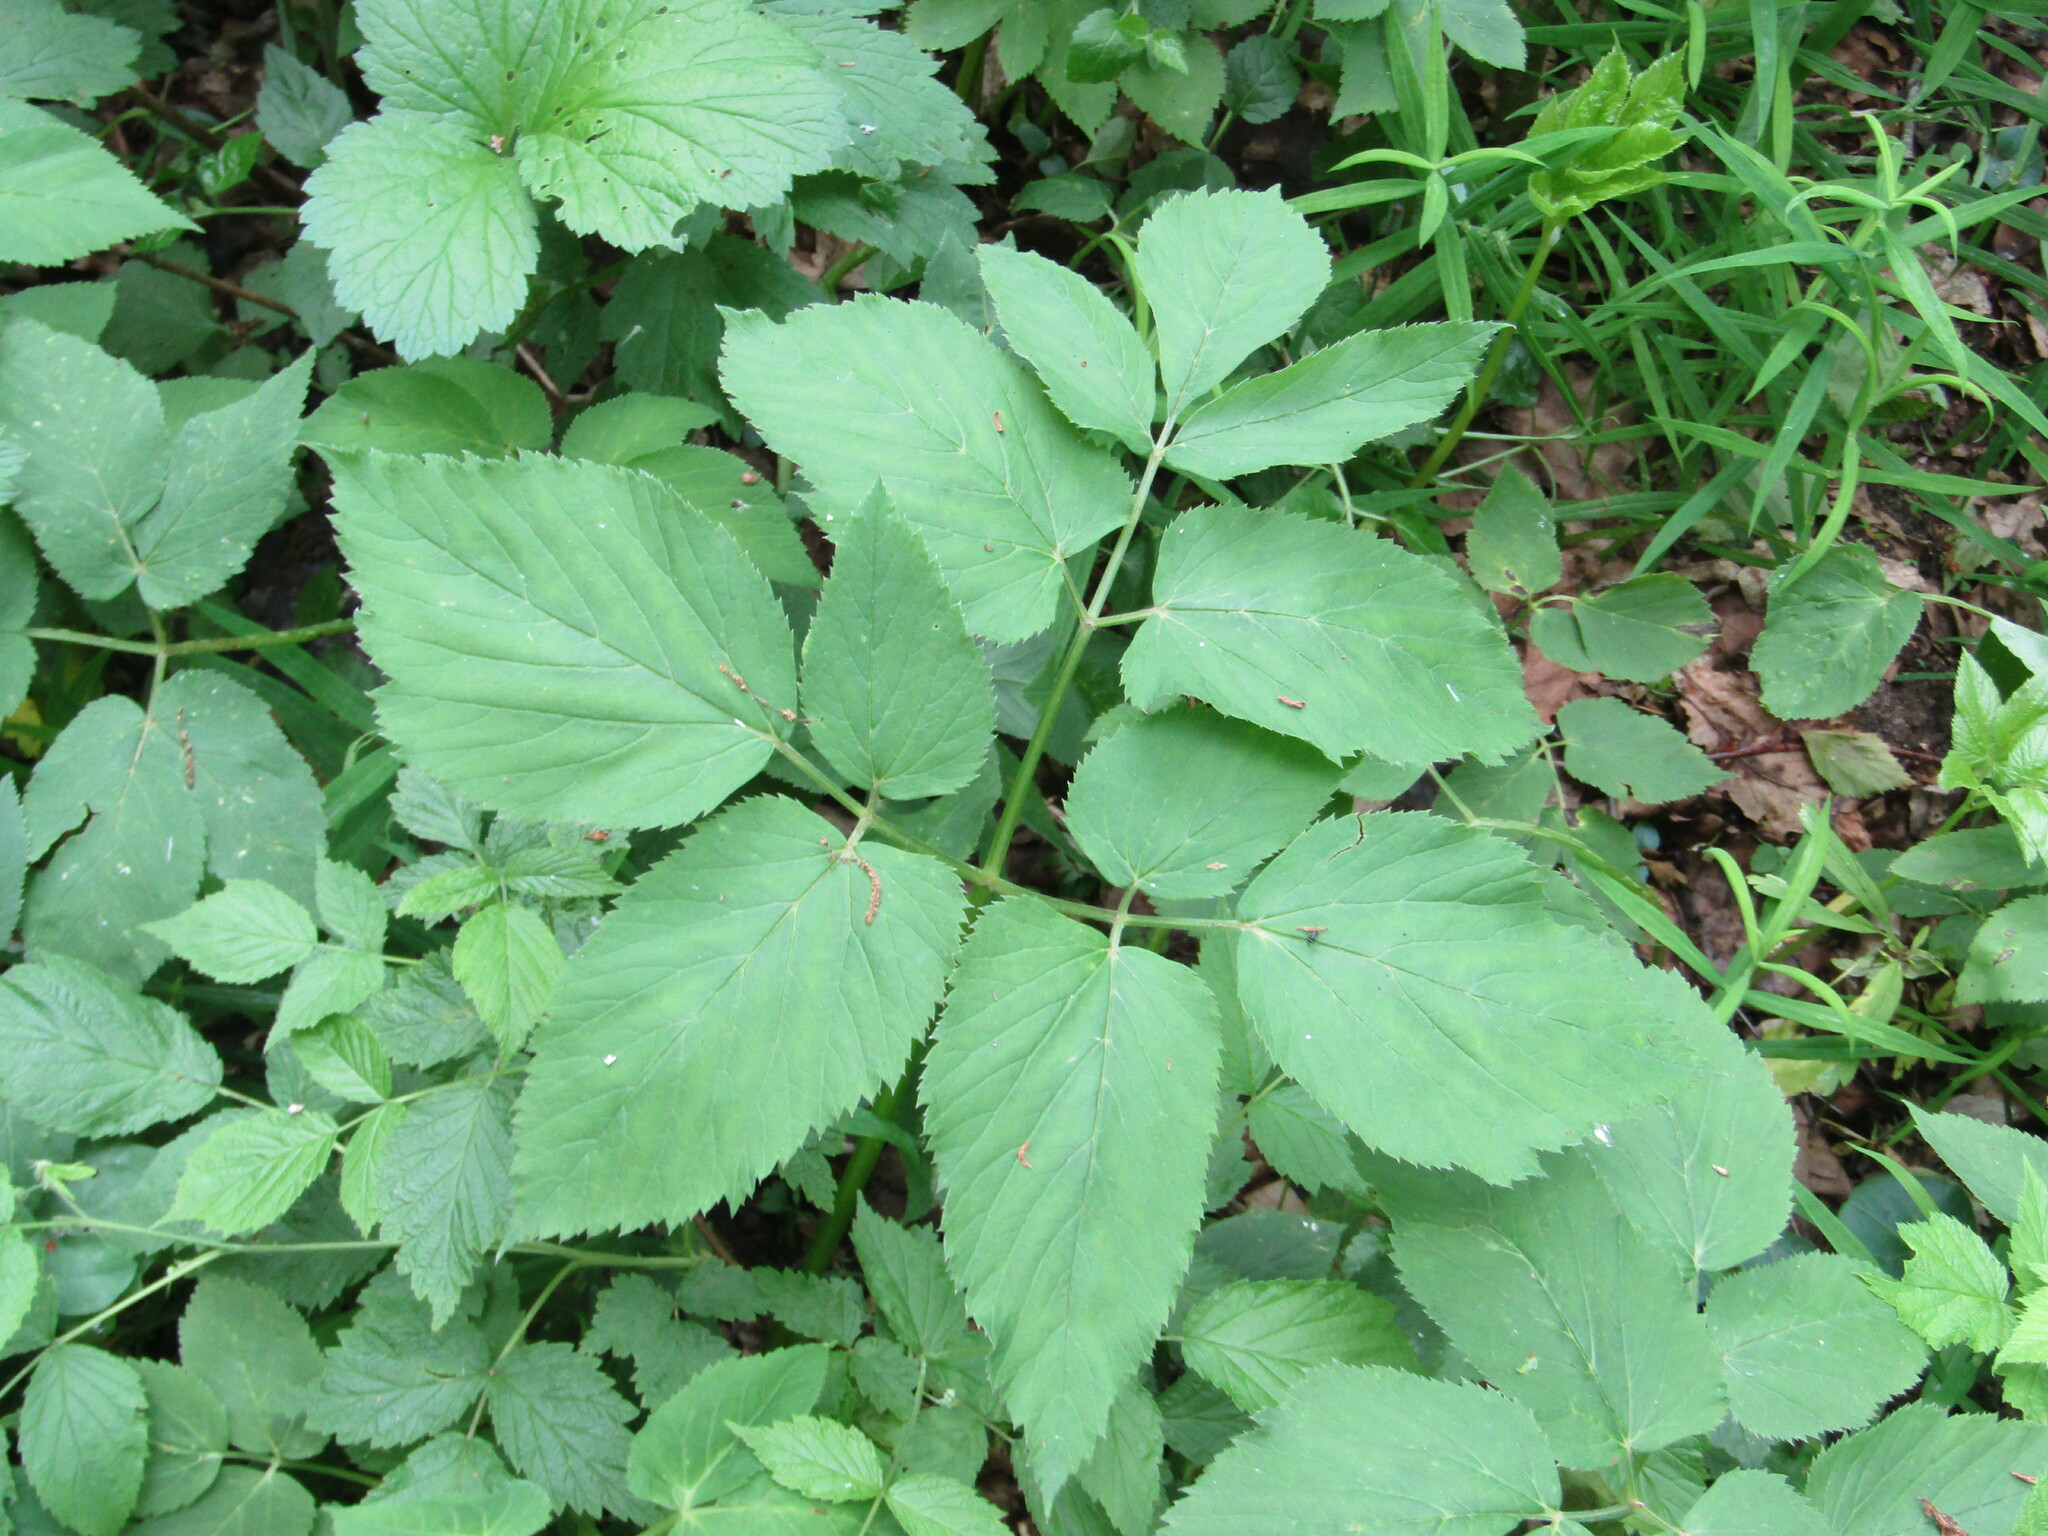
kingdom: Plantae
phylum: Tracheophyta
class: Magnoliopsida
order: Apiales
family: Apiaceae
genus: Aegopodium
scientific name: Aegopodium podagraria
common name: Ground-elder
